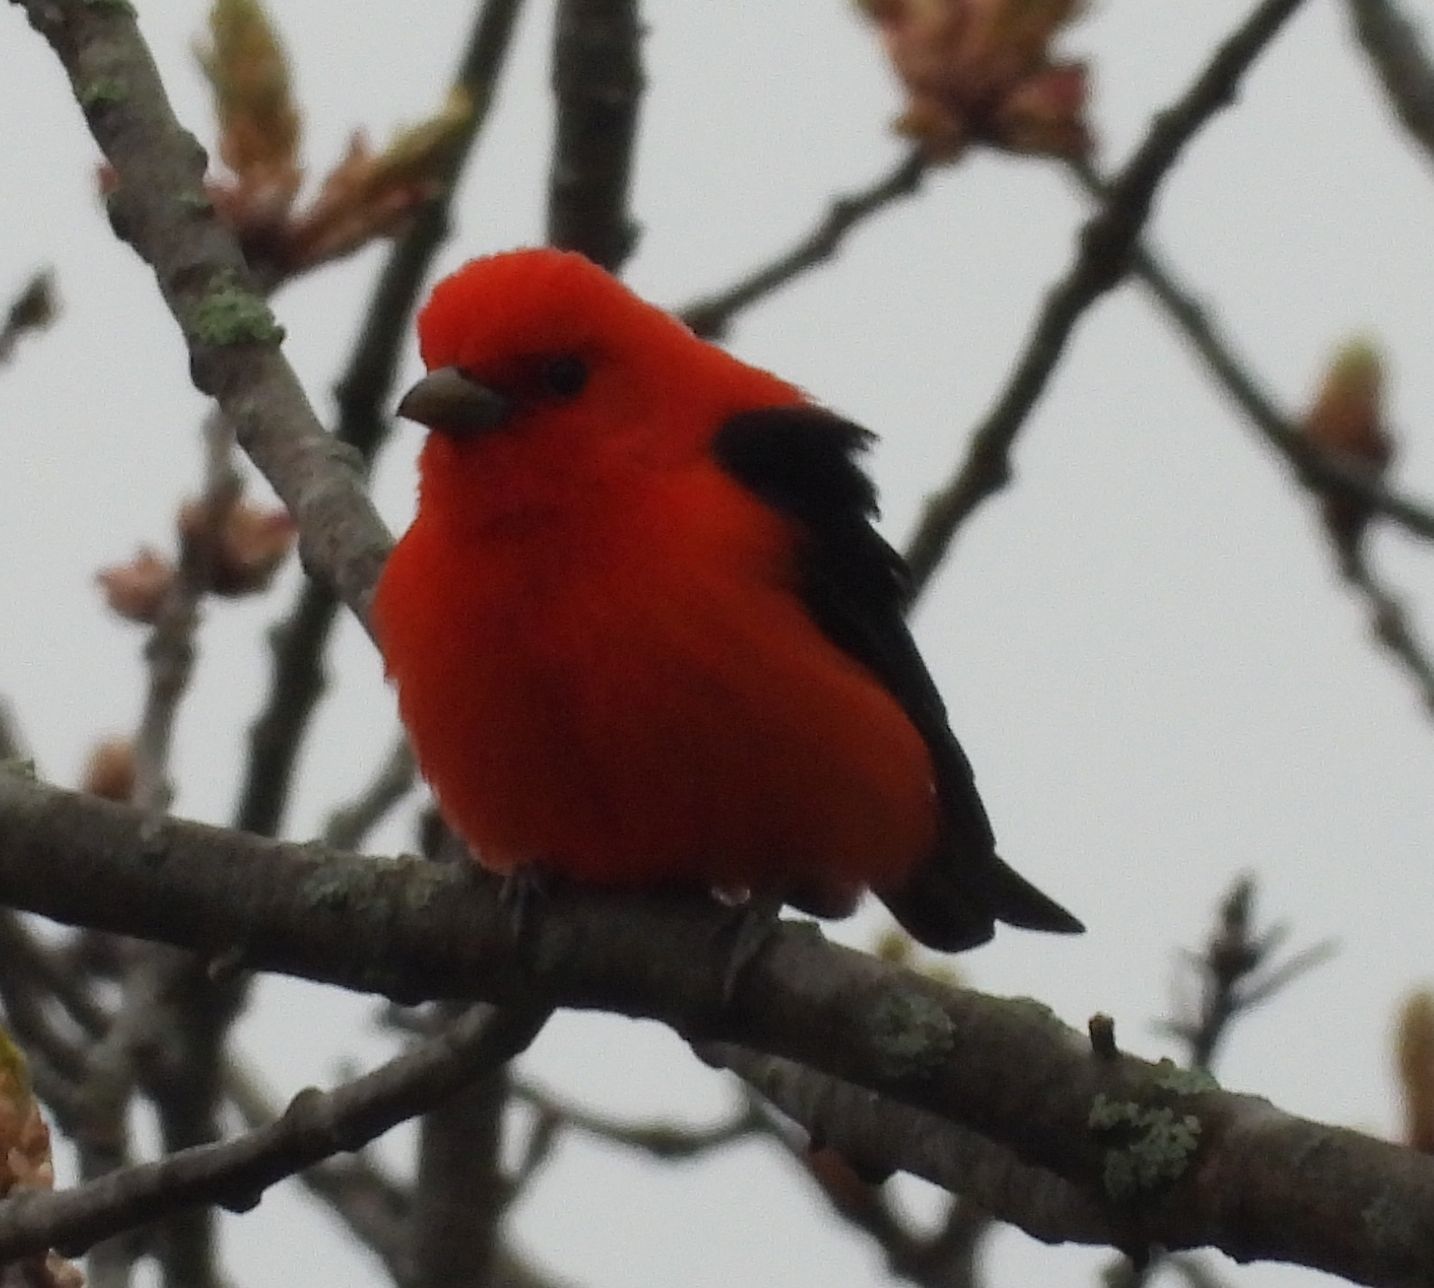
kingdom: Animalia
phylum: Chordata
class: Aves
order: Passeriformes
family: Cardinalidae
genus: Piranga
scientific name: Piranga olivacea
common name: Scarlet tanager
